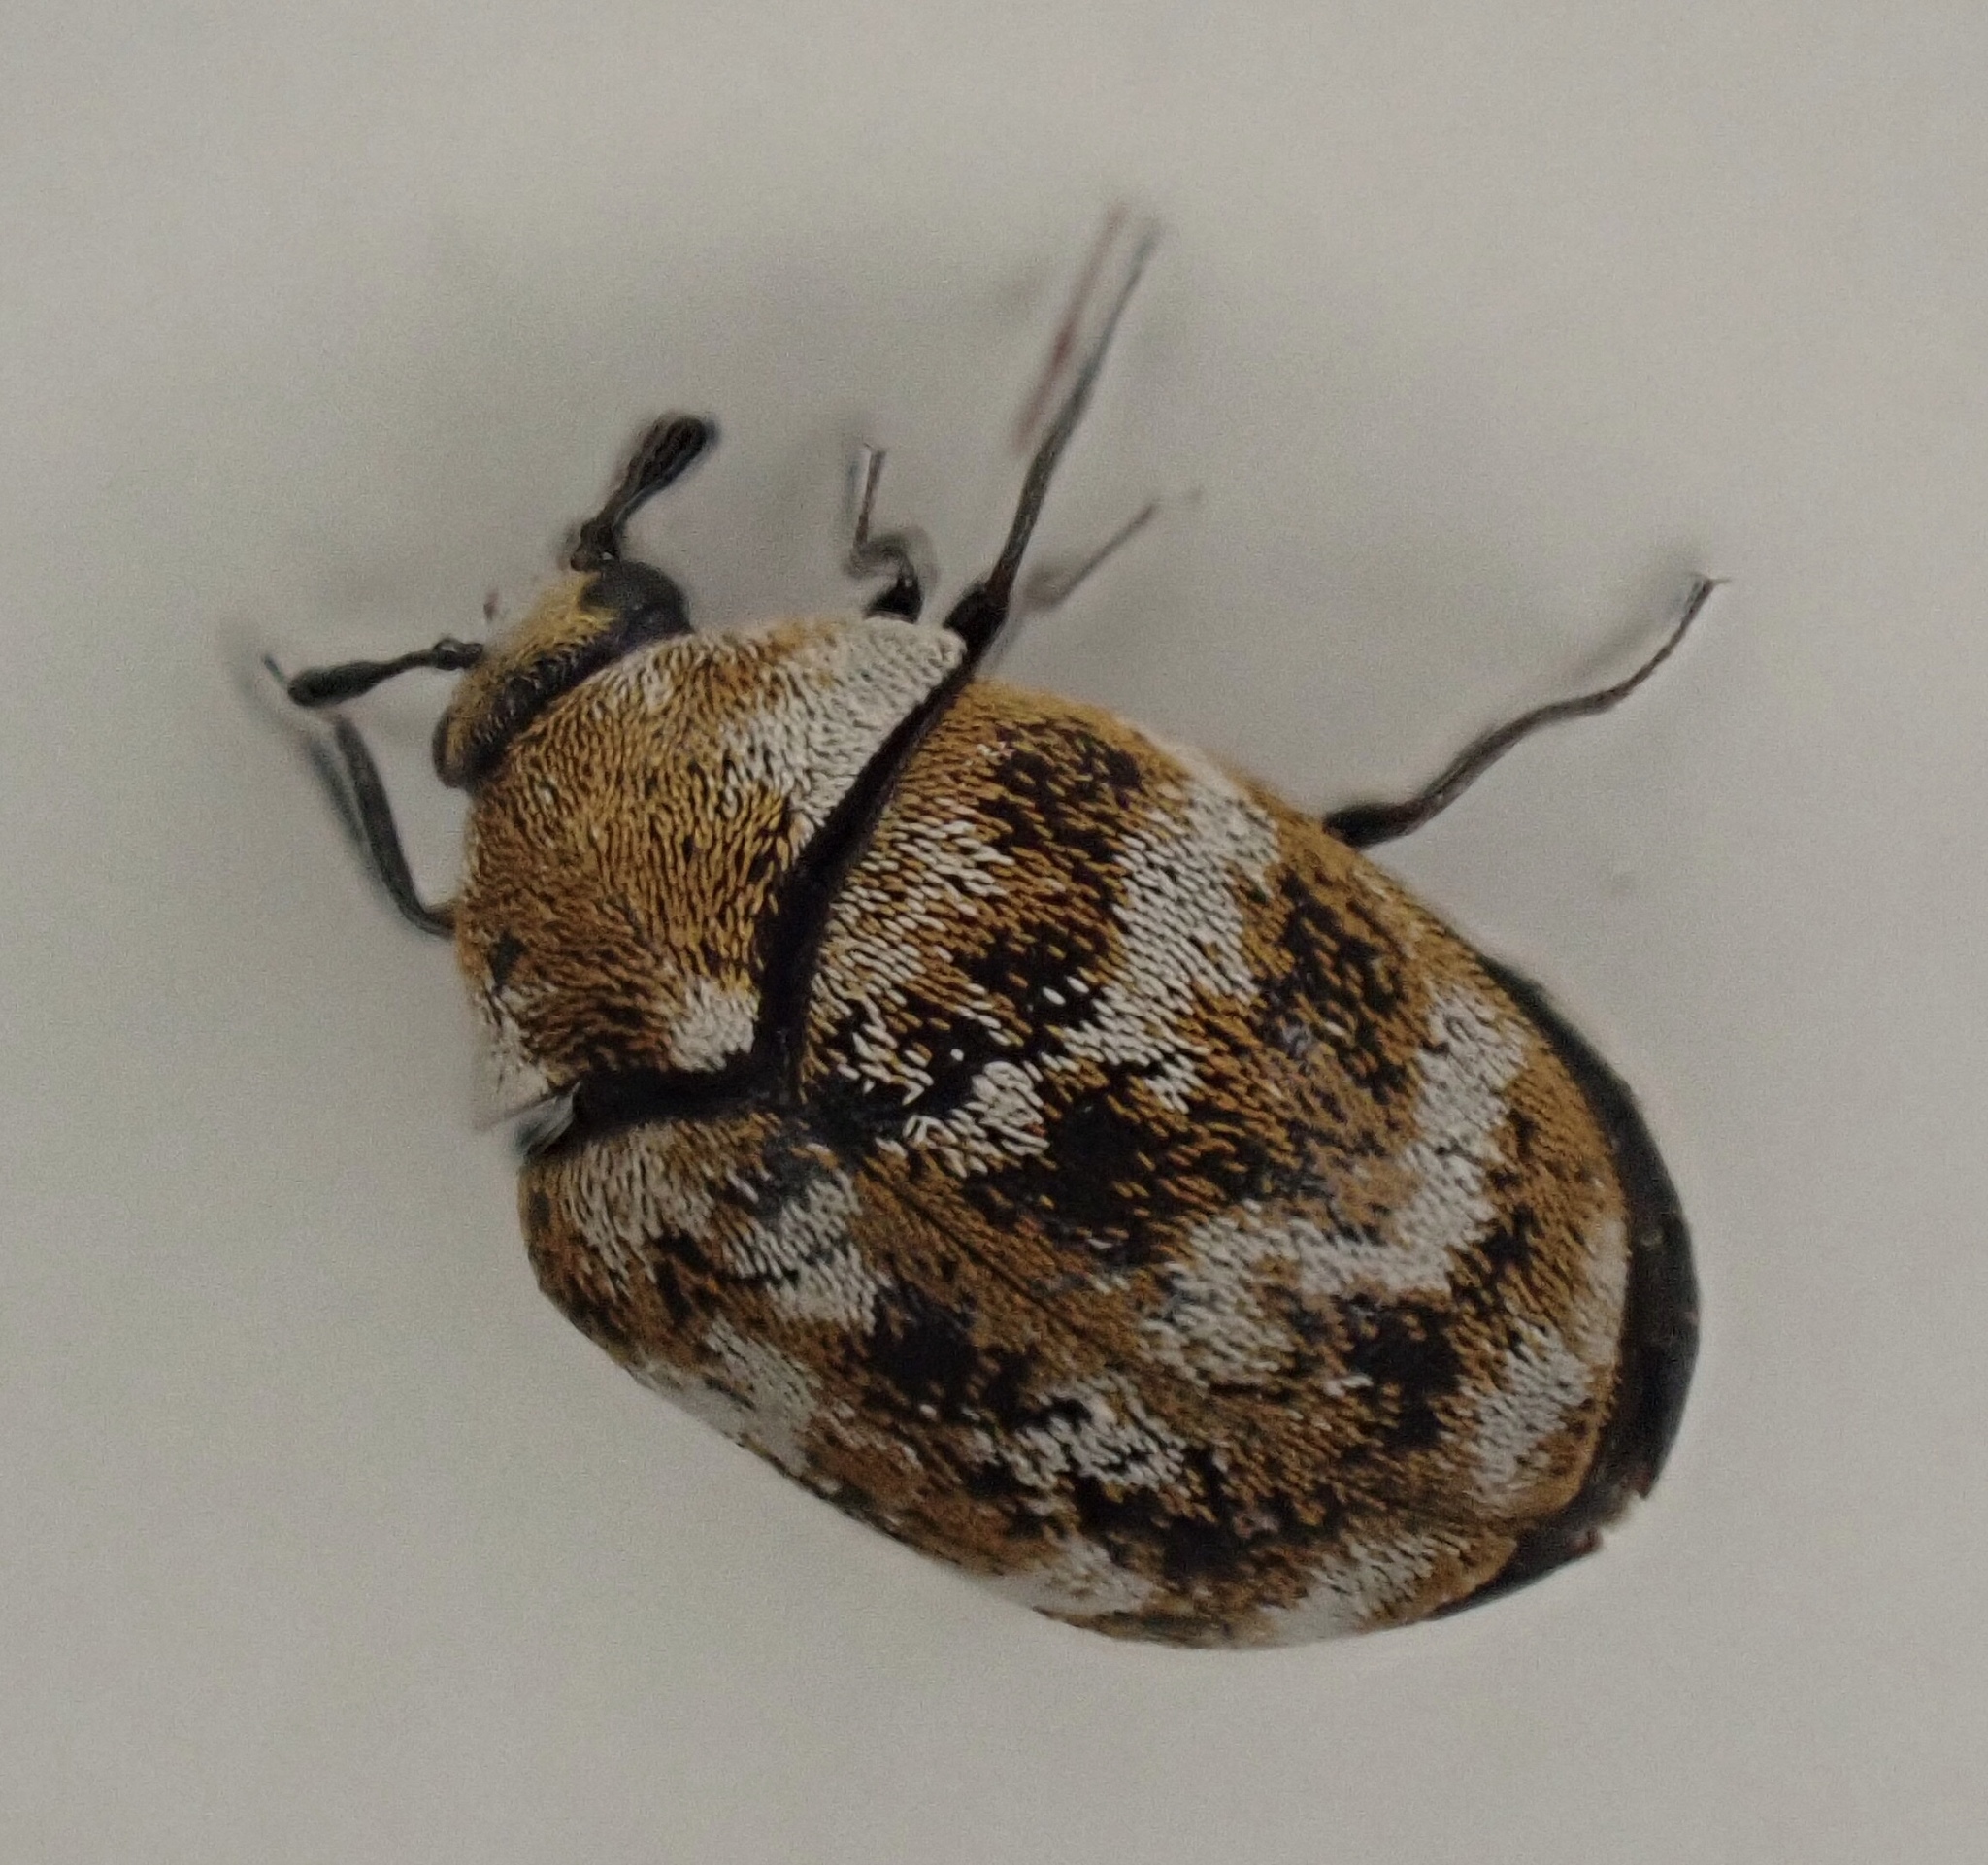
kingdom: Animalia
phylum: Arthropoda
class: Insecta
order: Coleoptera
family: Dermestidae
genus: Anthrenus
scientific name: Anthrenus verbasci
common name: Varied carpet beetle
